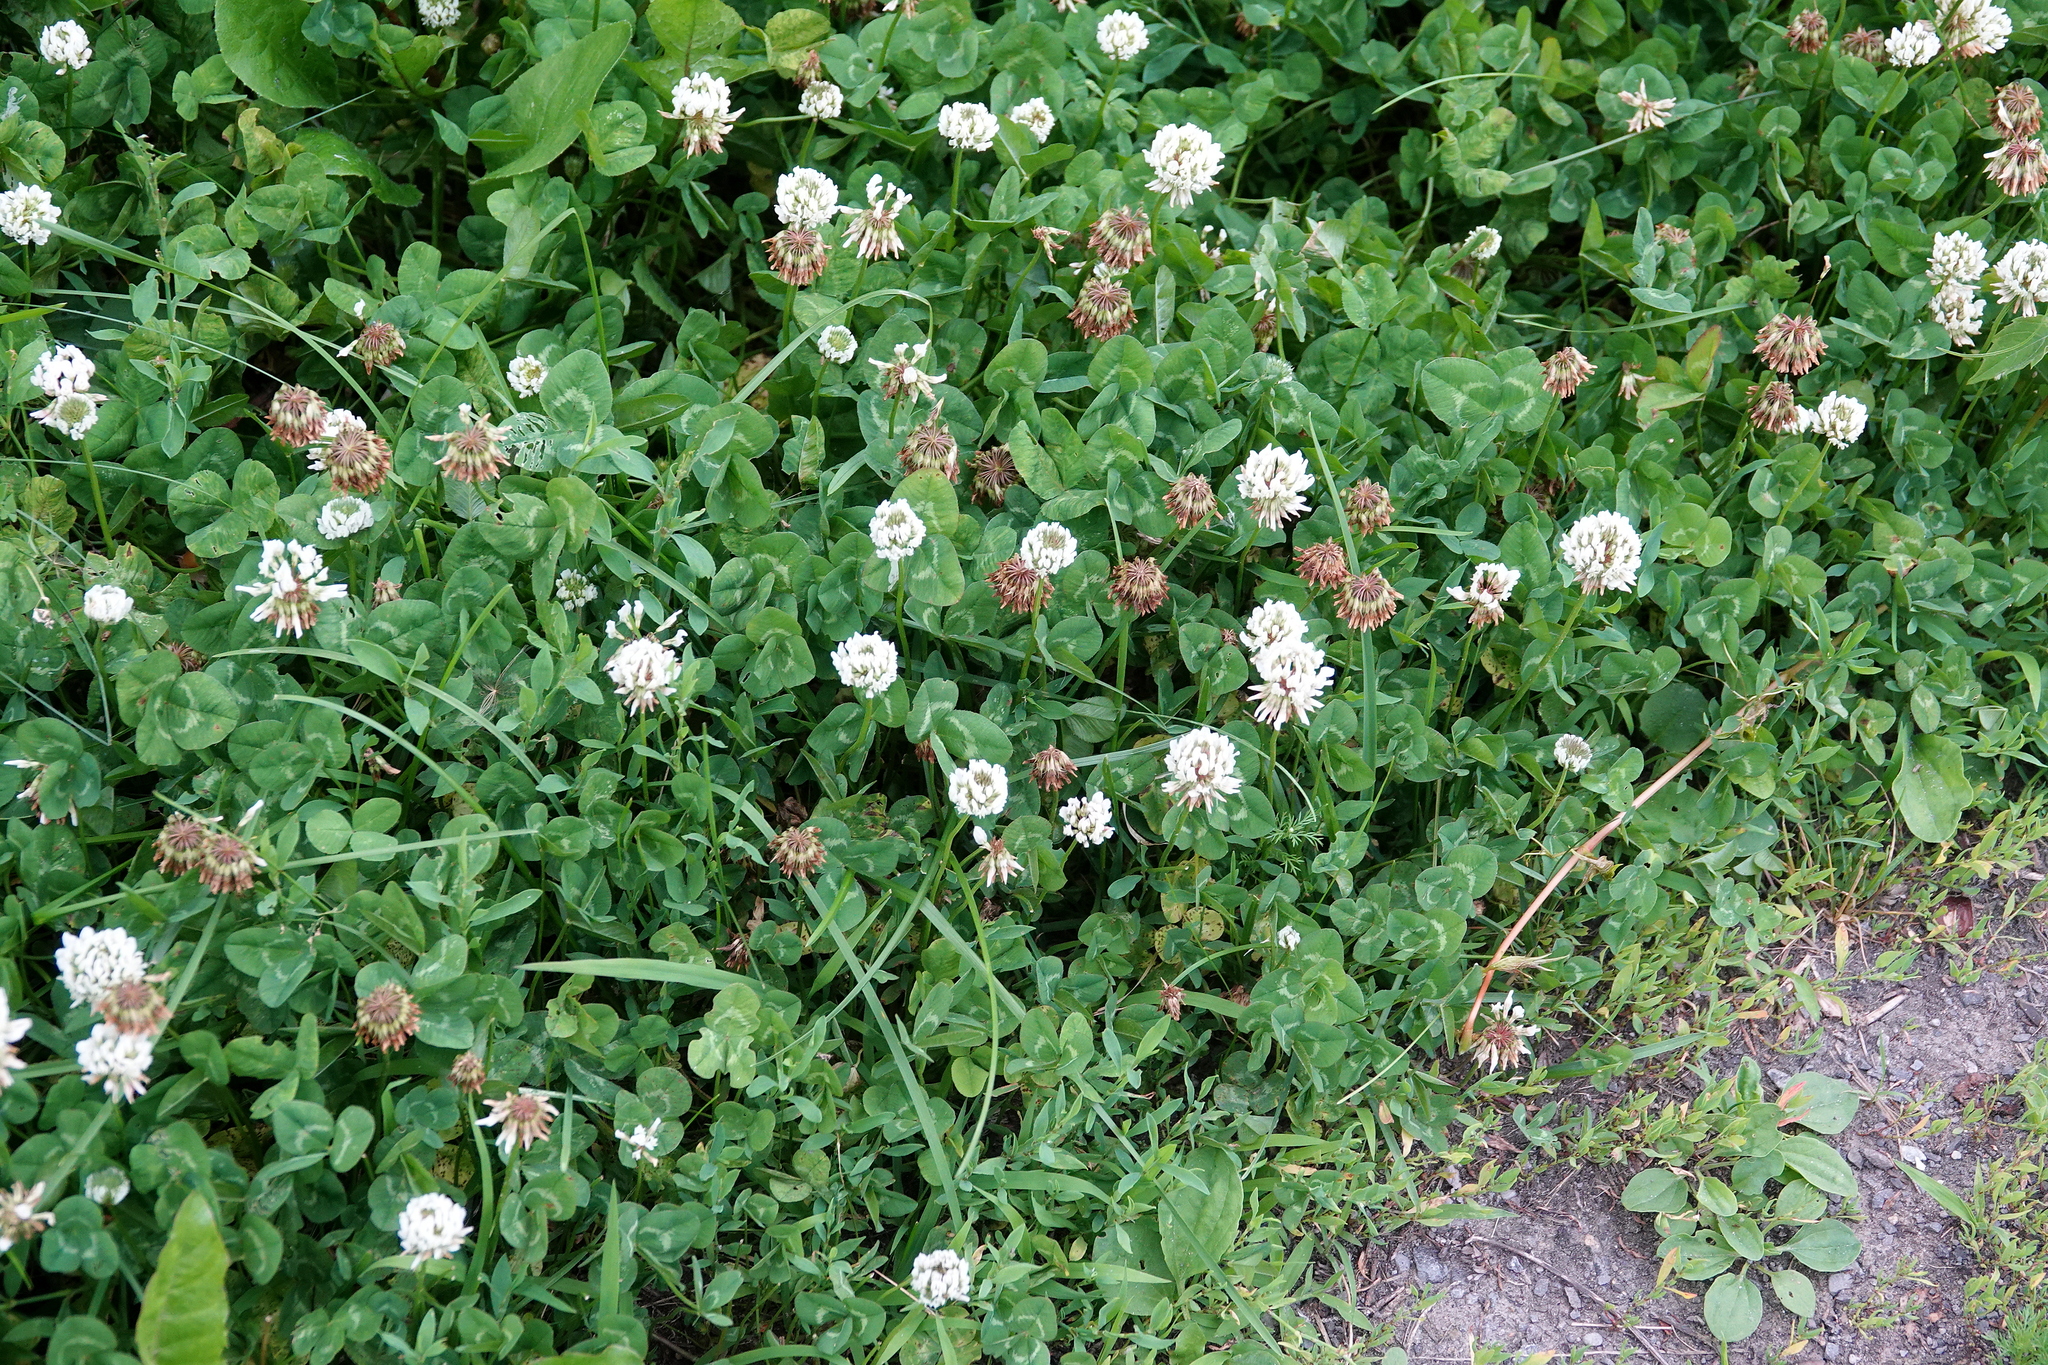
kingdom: Plantae
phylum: Tracheophyta
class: Magnoliopsida
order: Fabales
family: Fabaceae
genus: Trifolium
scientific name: Trifolium repens
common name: White clover
